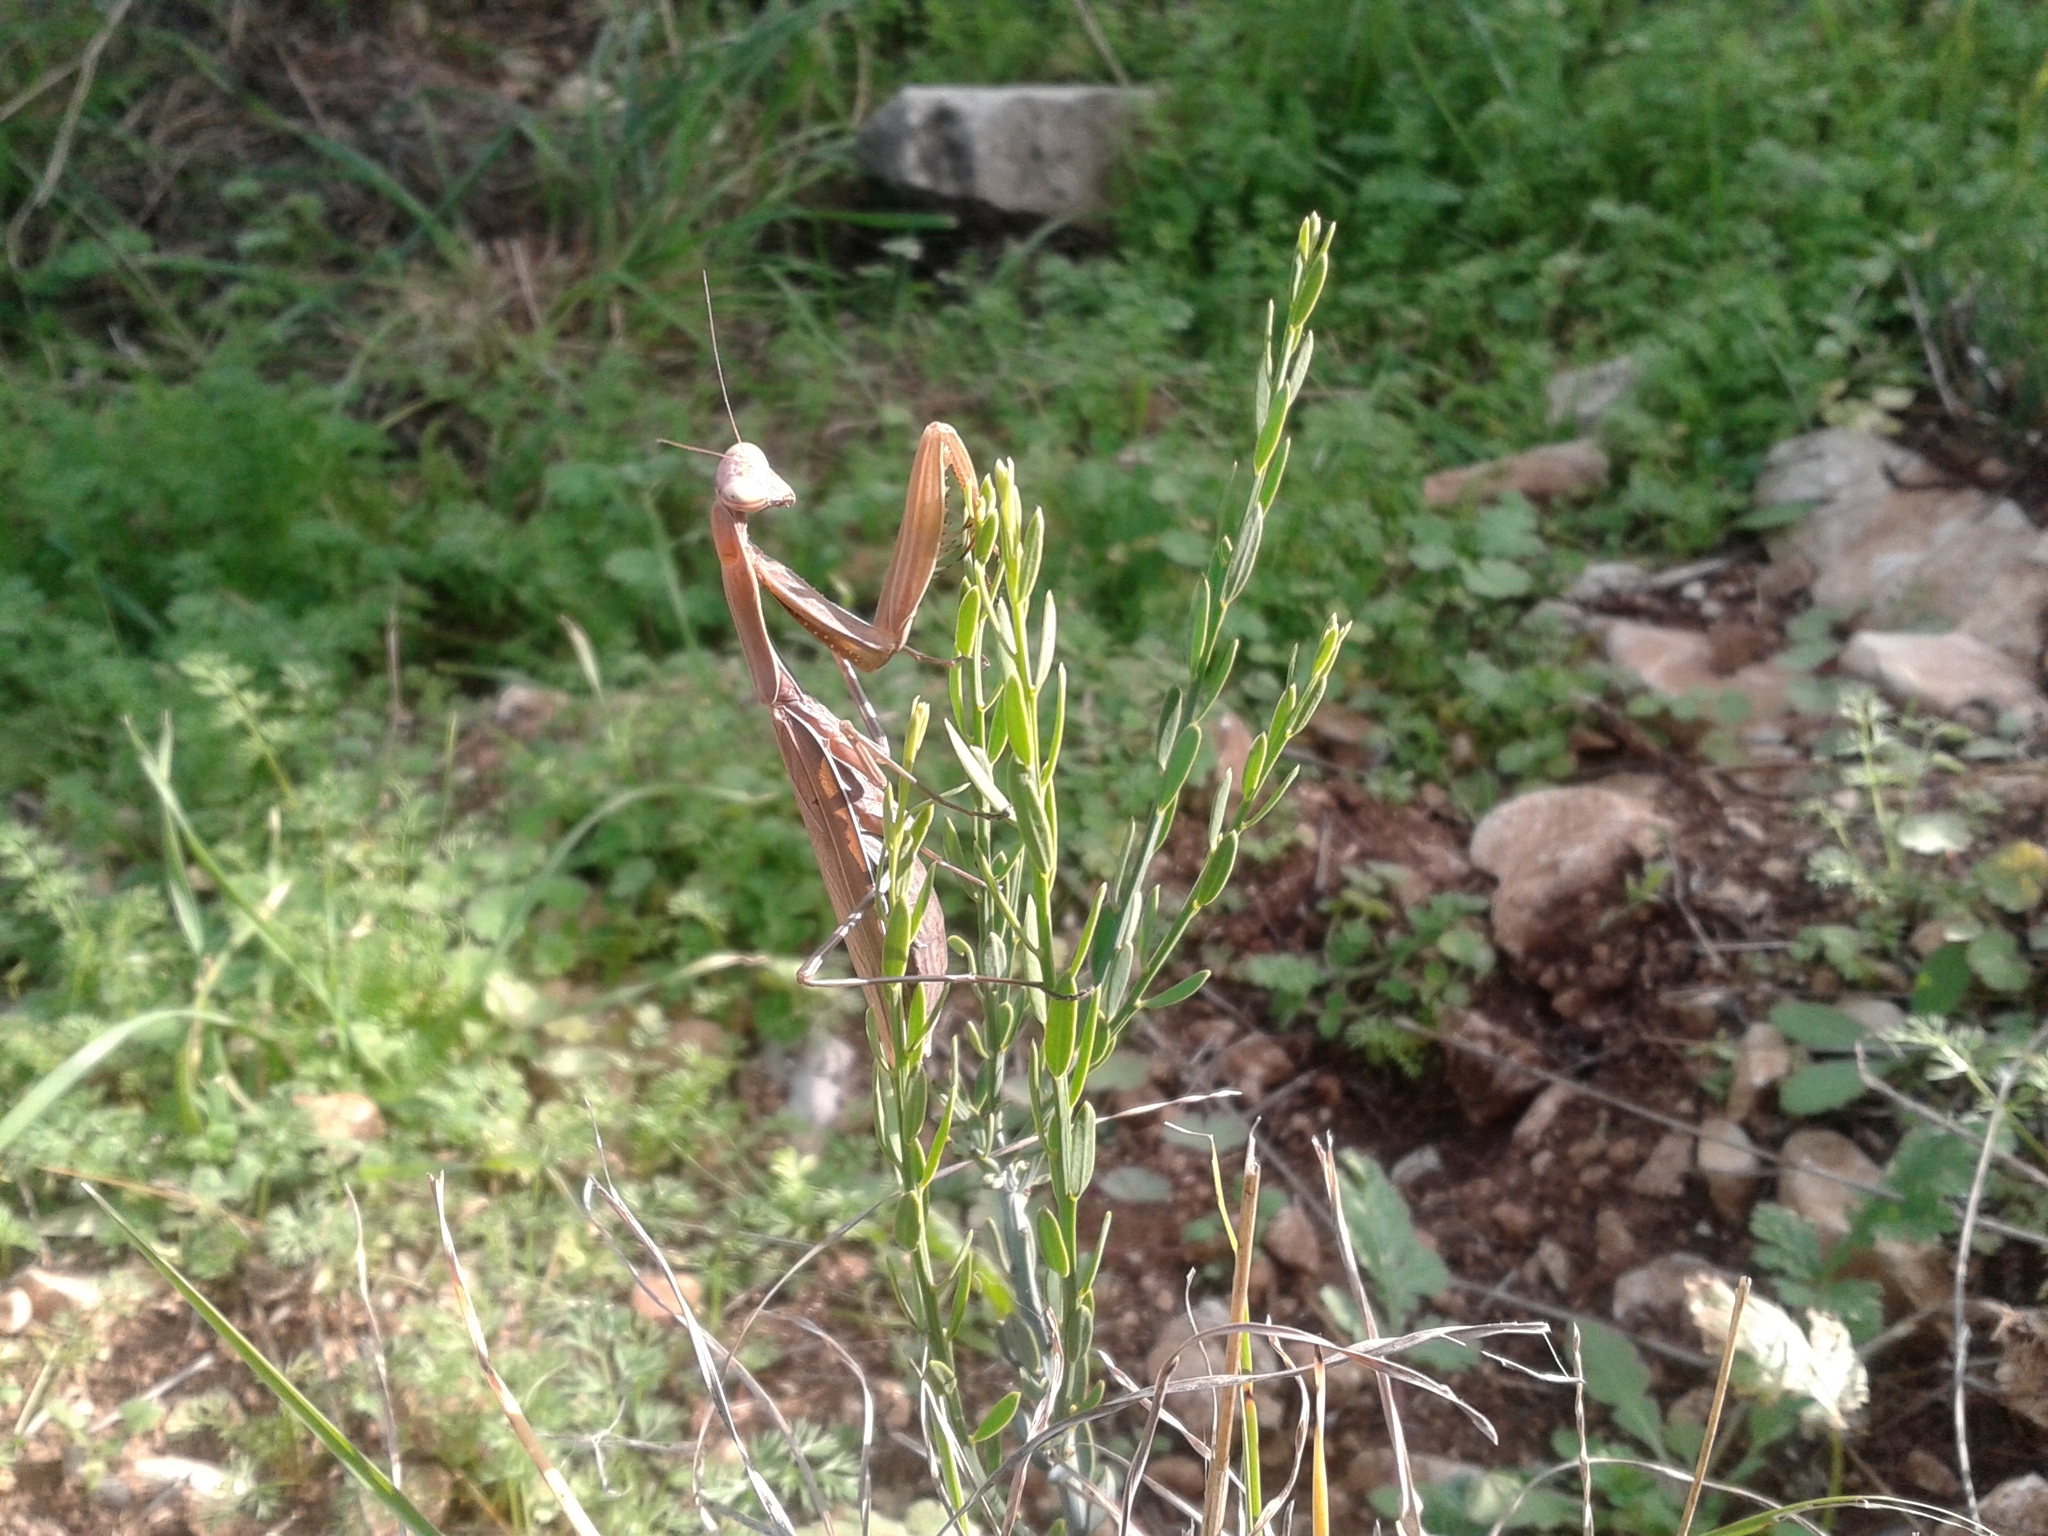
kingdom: Animalia
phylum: Arthropoda
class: Insecta
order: Mantodea
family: Mantidae
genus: Mantis
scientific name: Mantis religiosa
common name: Praying mantis
